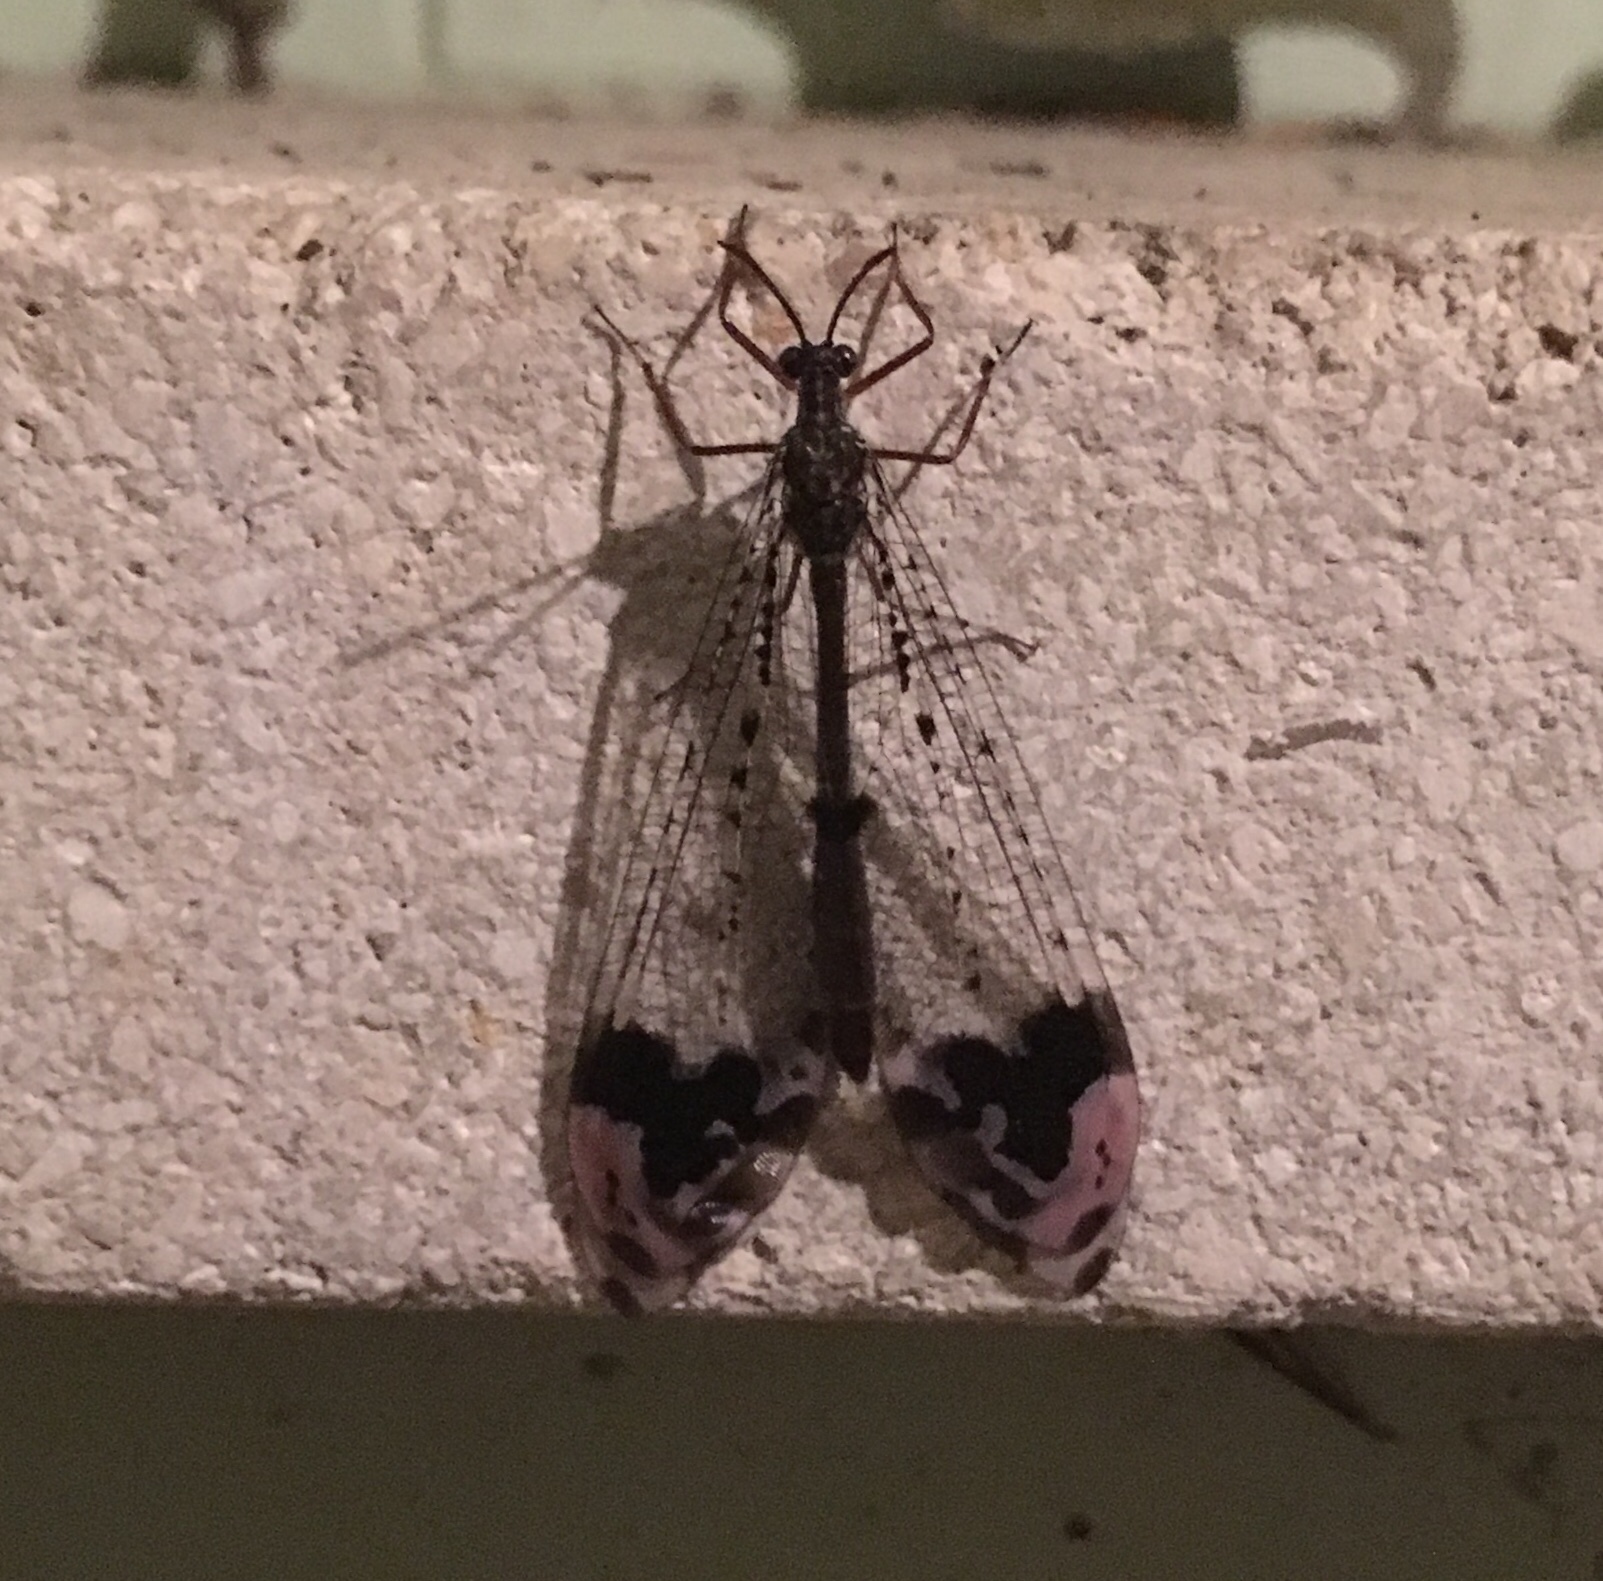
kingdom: Animalia
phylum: Arthropoda
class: Insecta
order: Neuroptera
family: Myrmeleontidae
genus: Glenurus
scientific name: Glenurus gratus
